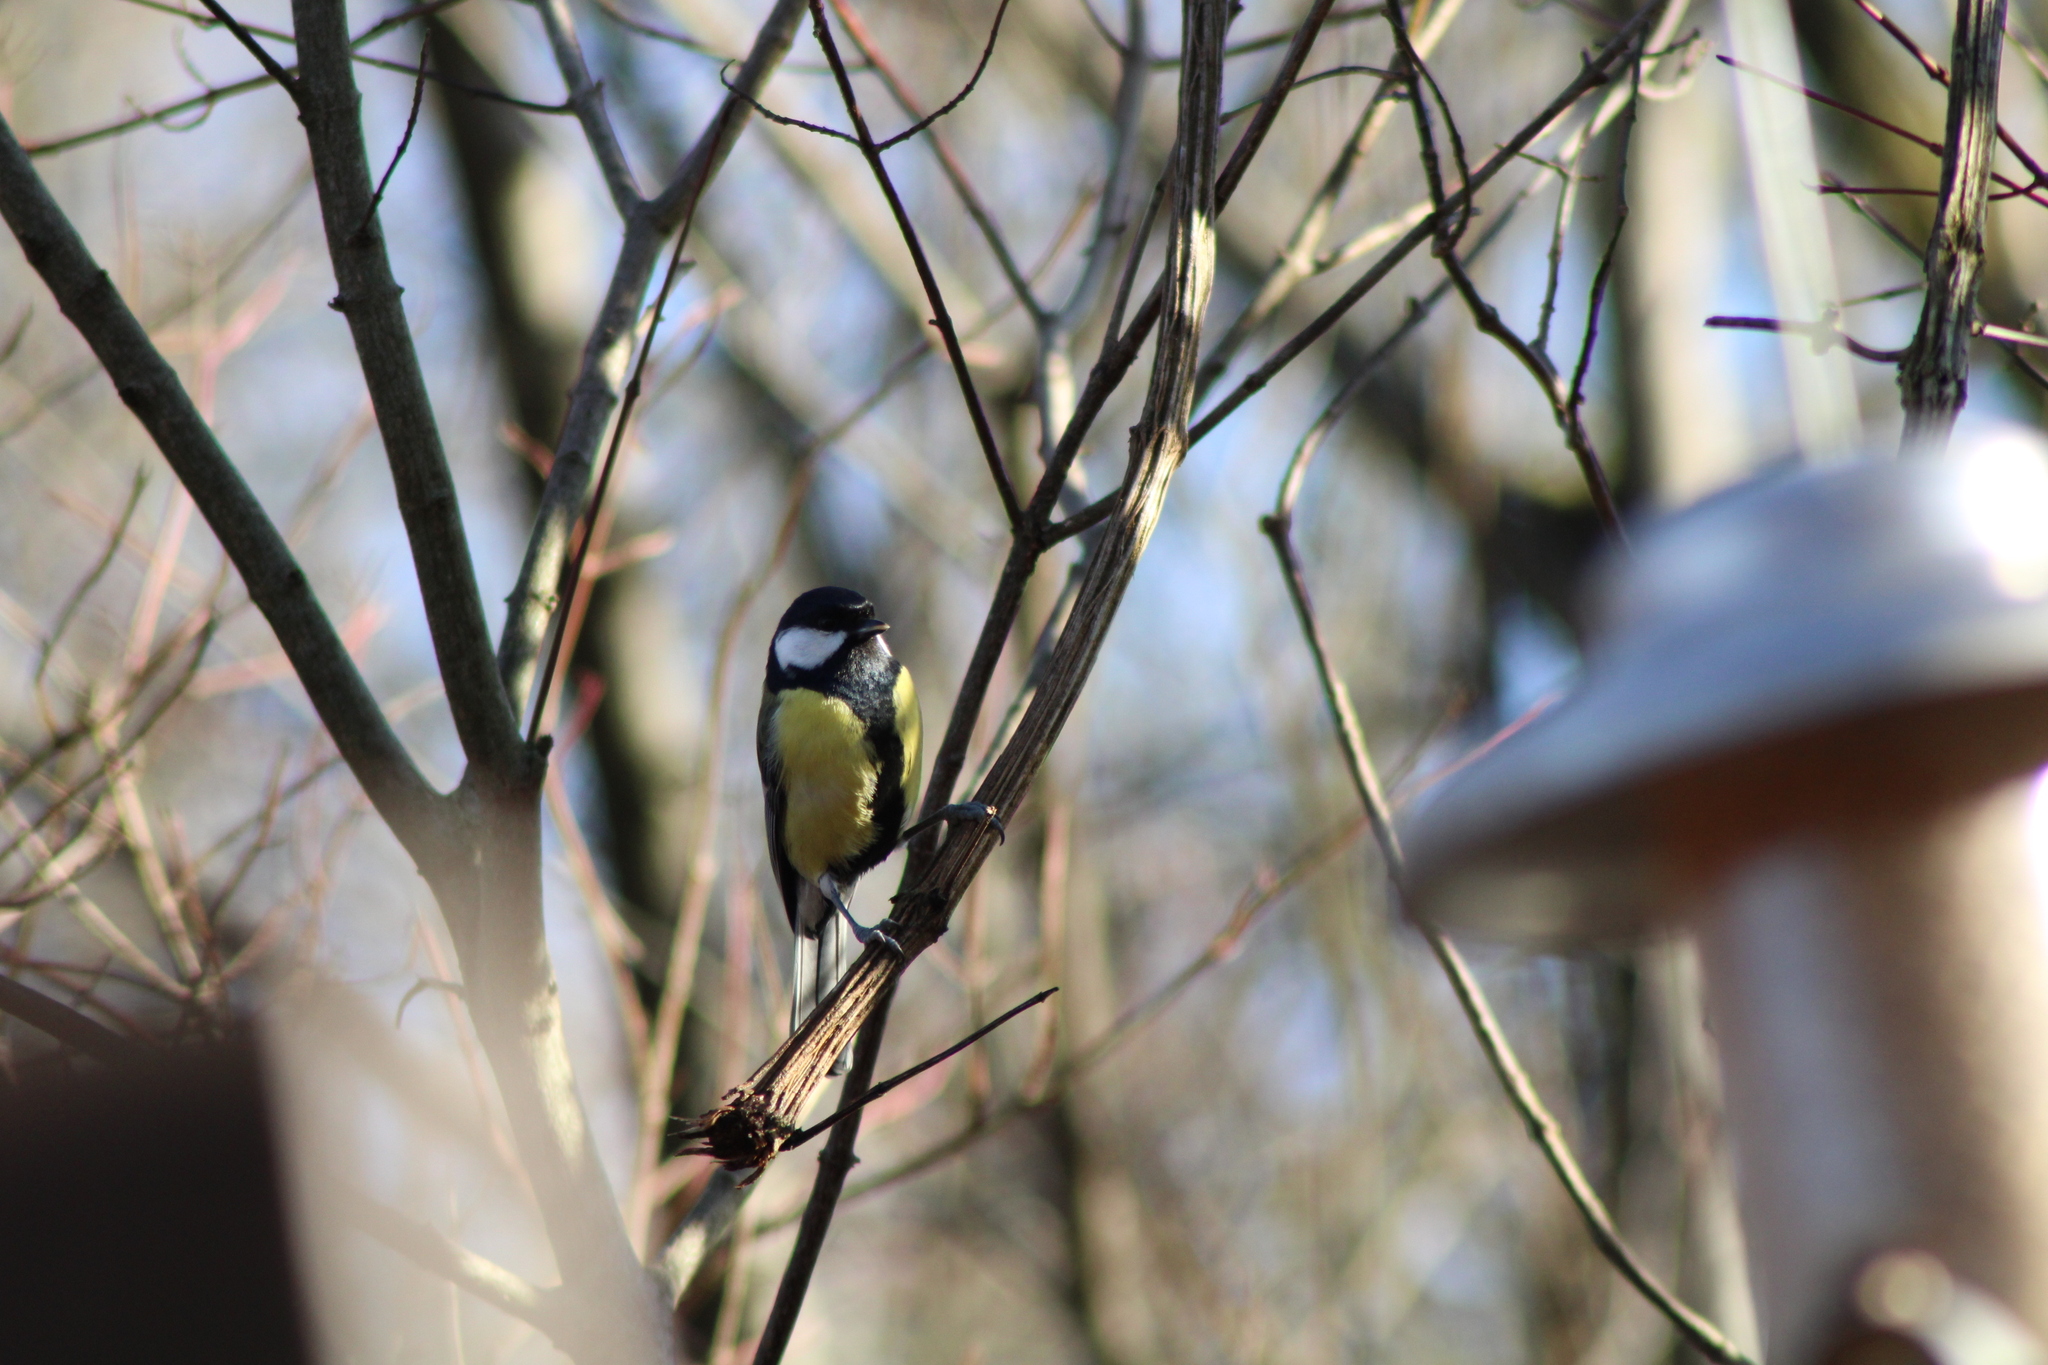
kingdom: Animalia
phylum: Chordata
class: Aves
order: Passeriformes
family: Paridae
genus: Parus
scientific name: Parus major
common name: Great tit
